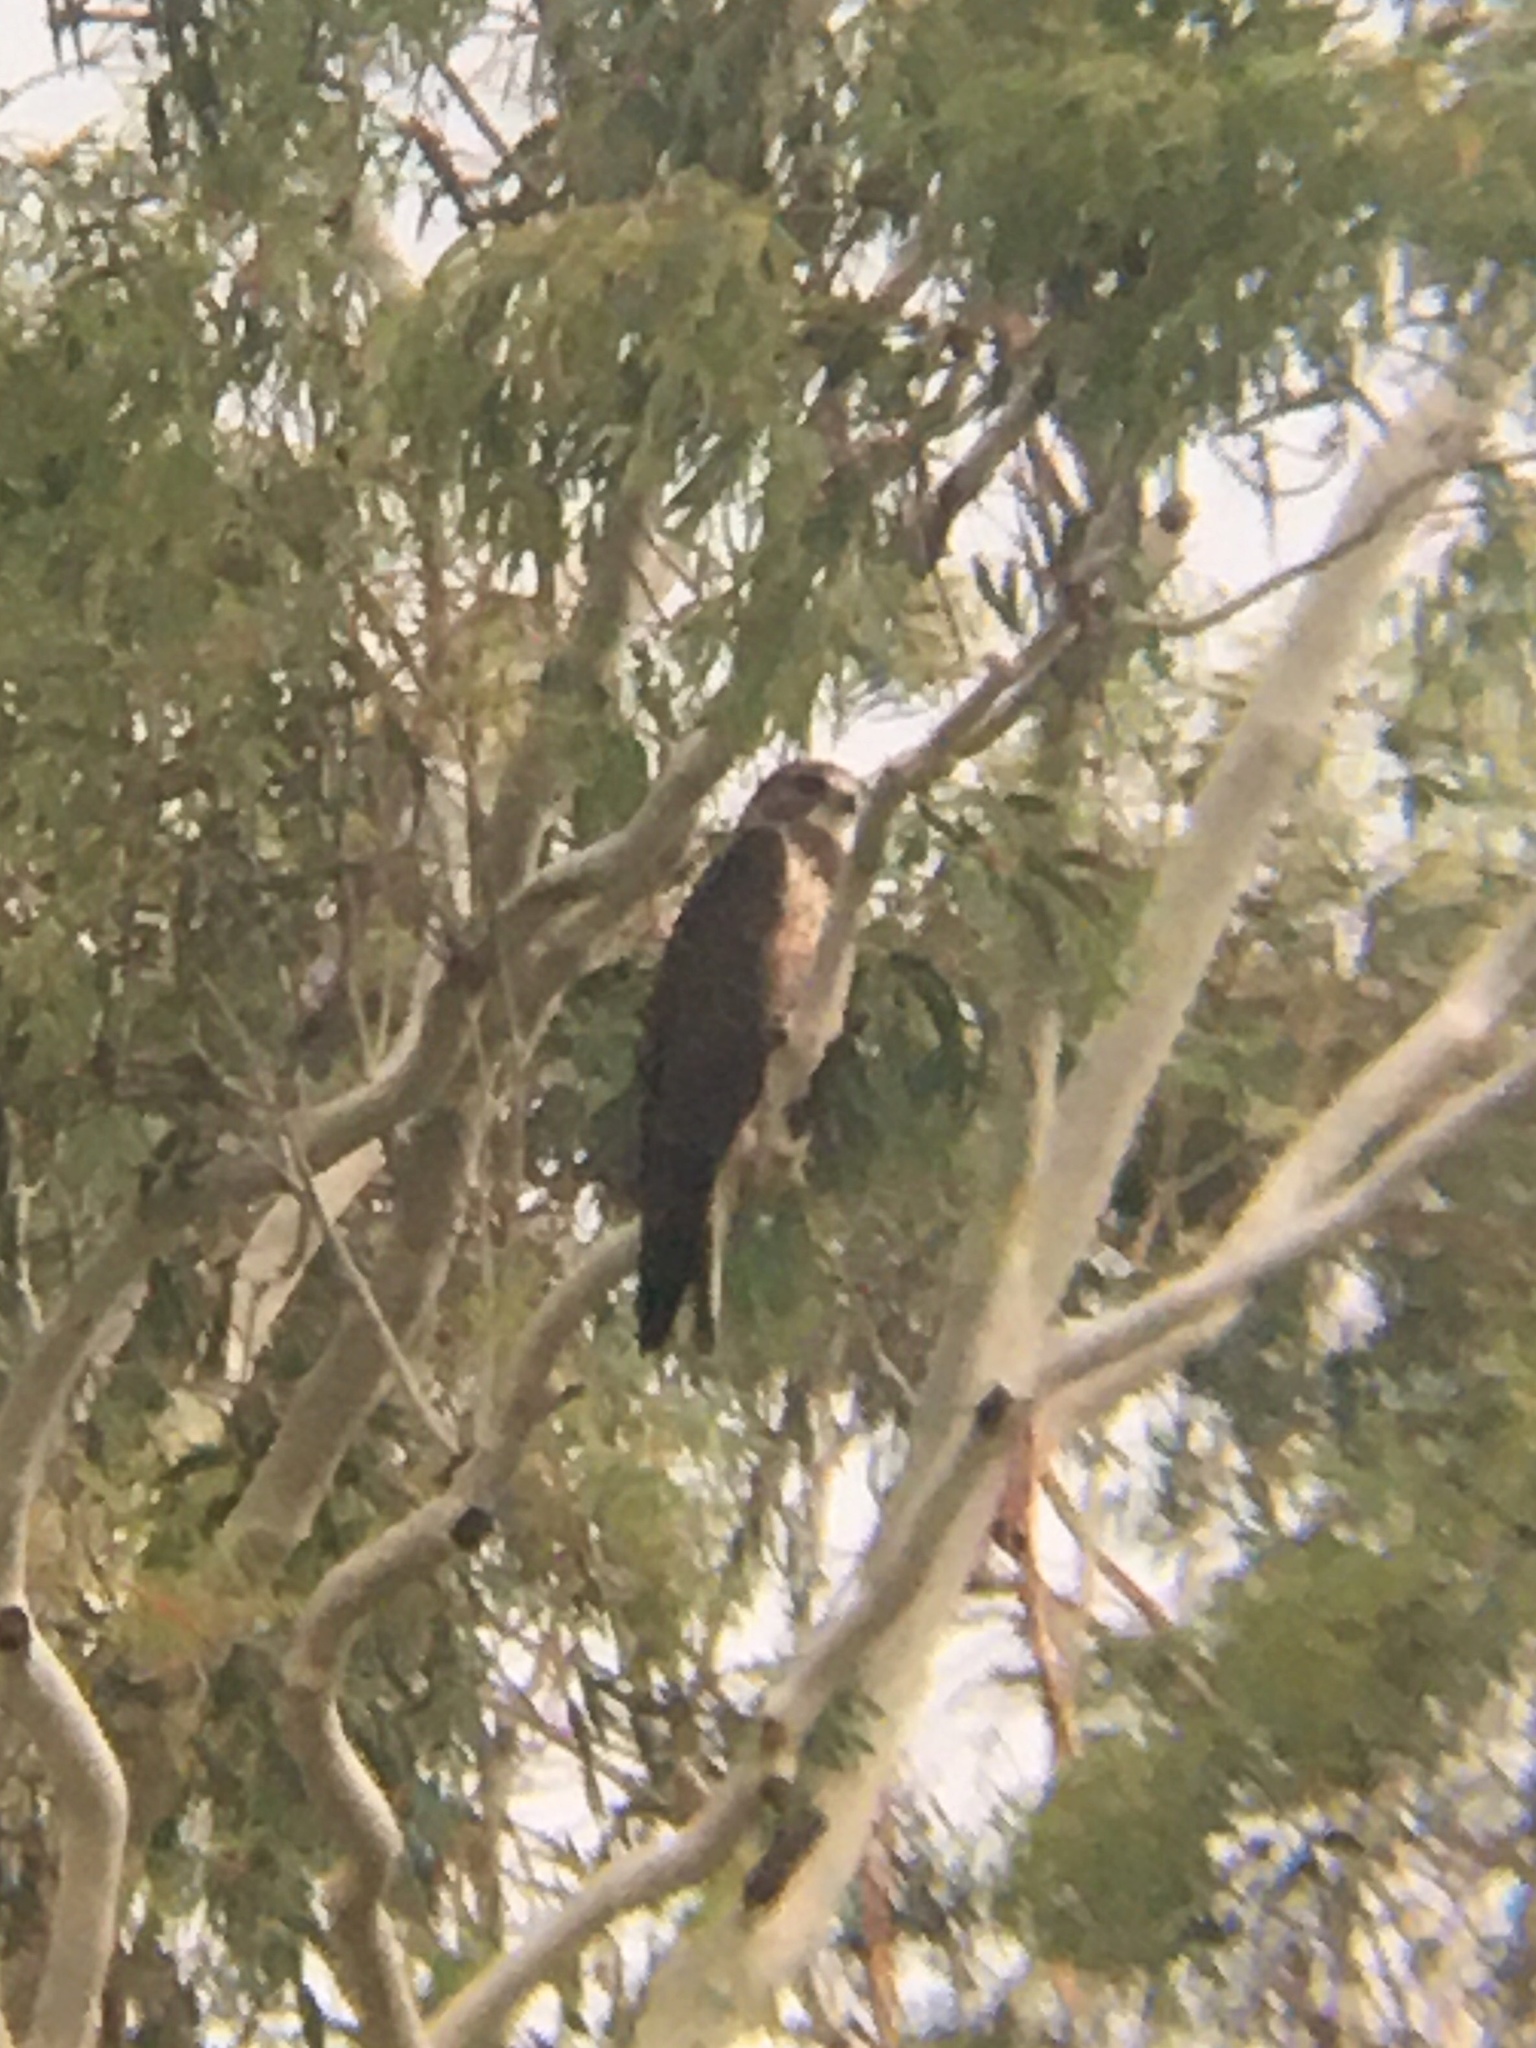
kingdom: Animalia
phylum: Chordata
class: Aves
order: Accipitriformes
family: Accipitridae
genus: Buteo
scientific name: Buteo swainsoni
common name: Swainson's hawk
